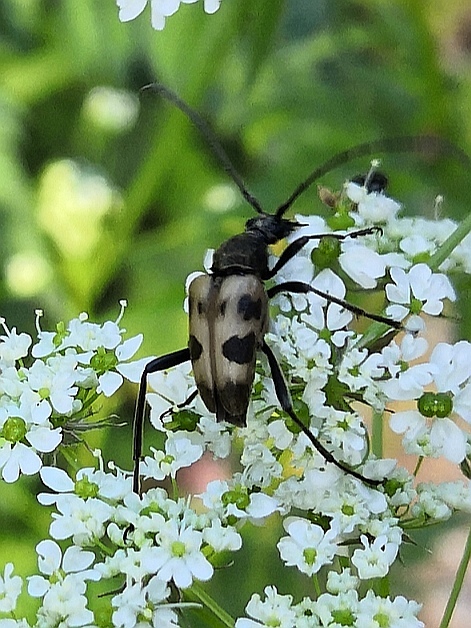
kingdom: Animalia
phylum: Arthropoda
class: Insecta
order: Coleoptera
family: Cerambycidae
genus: Pachytodes
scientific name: Pachytodes cerambyciformis
